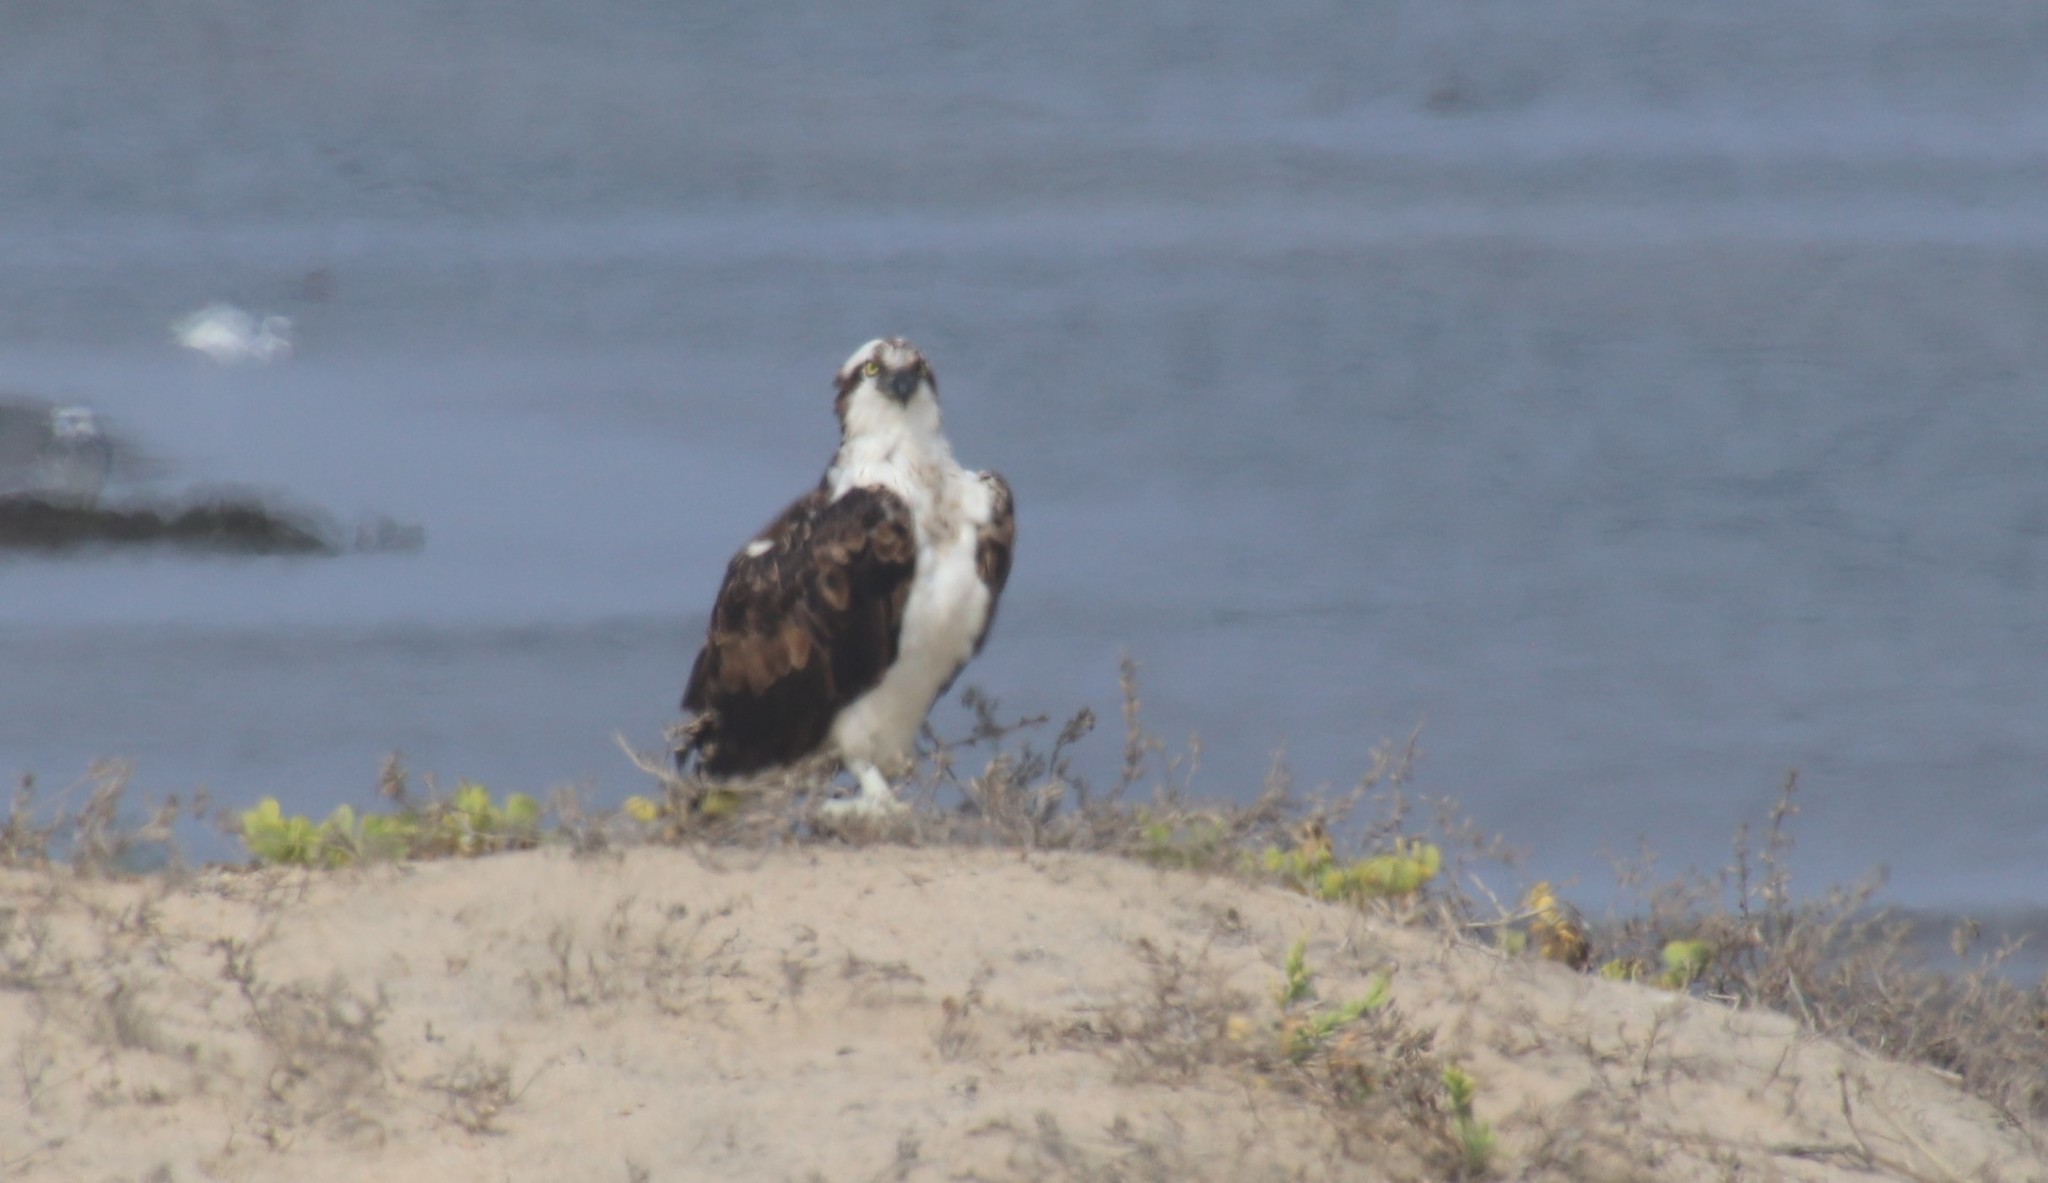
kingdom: Animalia
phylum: Chordata
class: Aves
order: Accipitriformes
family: Pandionidae
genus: Pandion
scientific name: Pandion haliaetus
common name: Osprey
